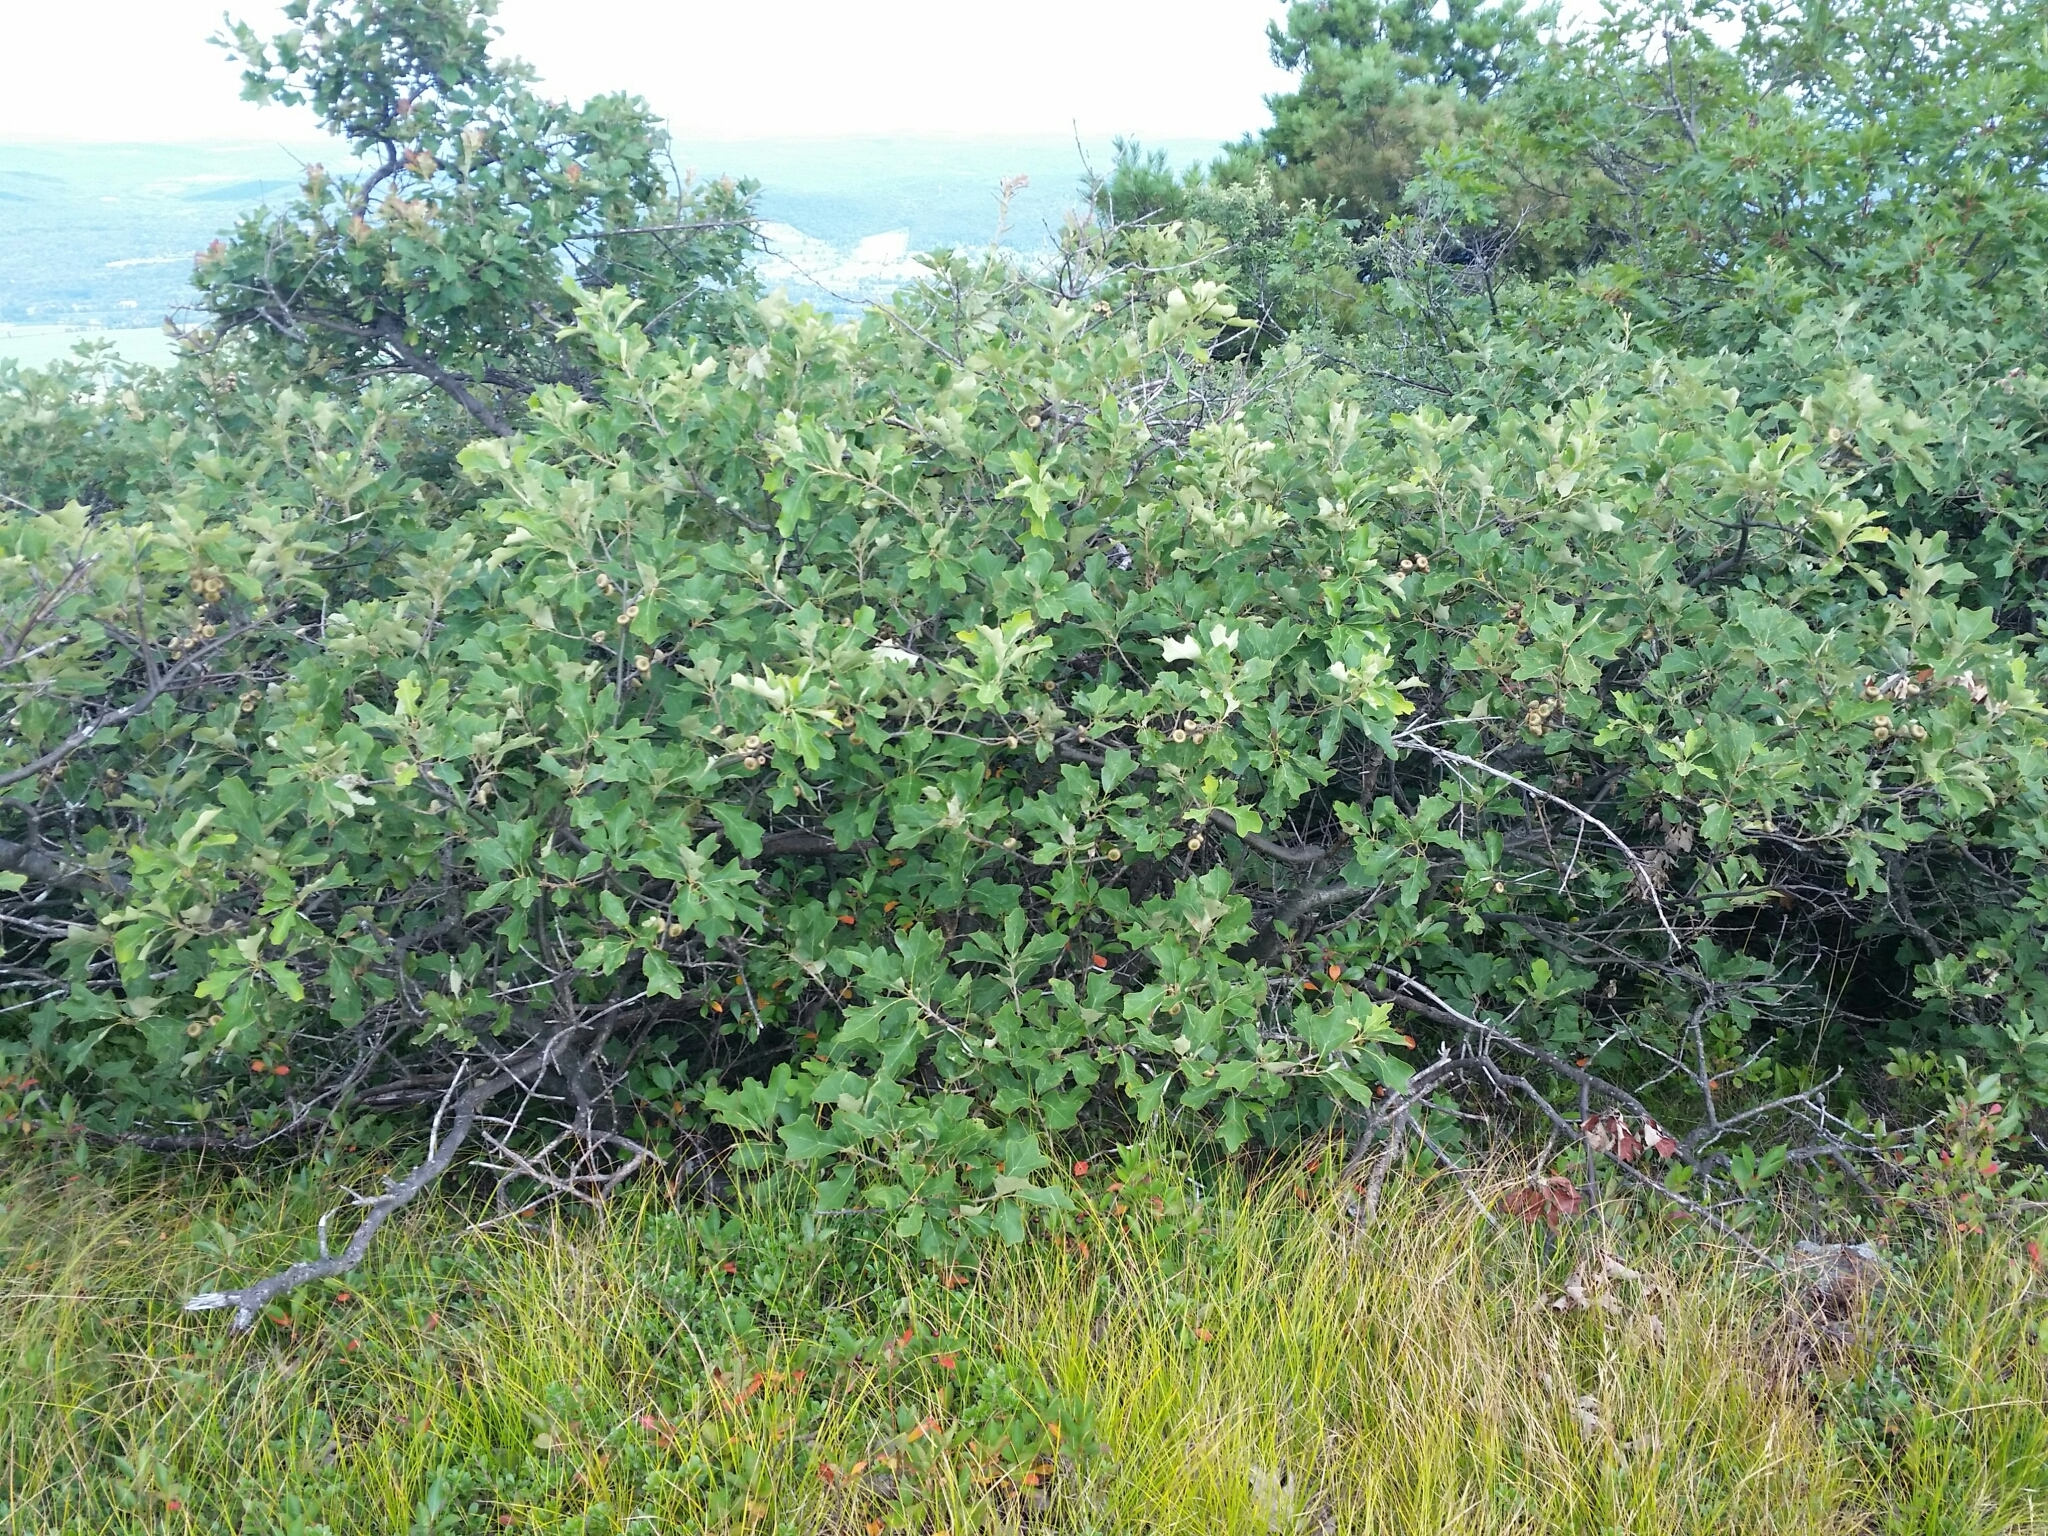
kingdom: Plantae
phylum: Tracheophyta
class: Magnoliopsida
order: Fagales
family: Fagaceae
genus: Quercus
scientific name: Quercus ilicifolia
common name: Bear oak
